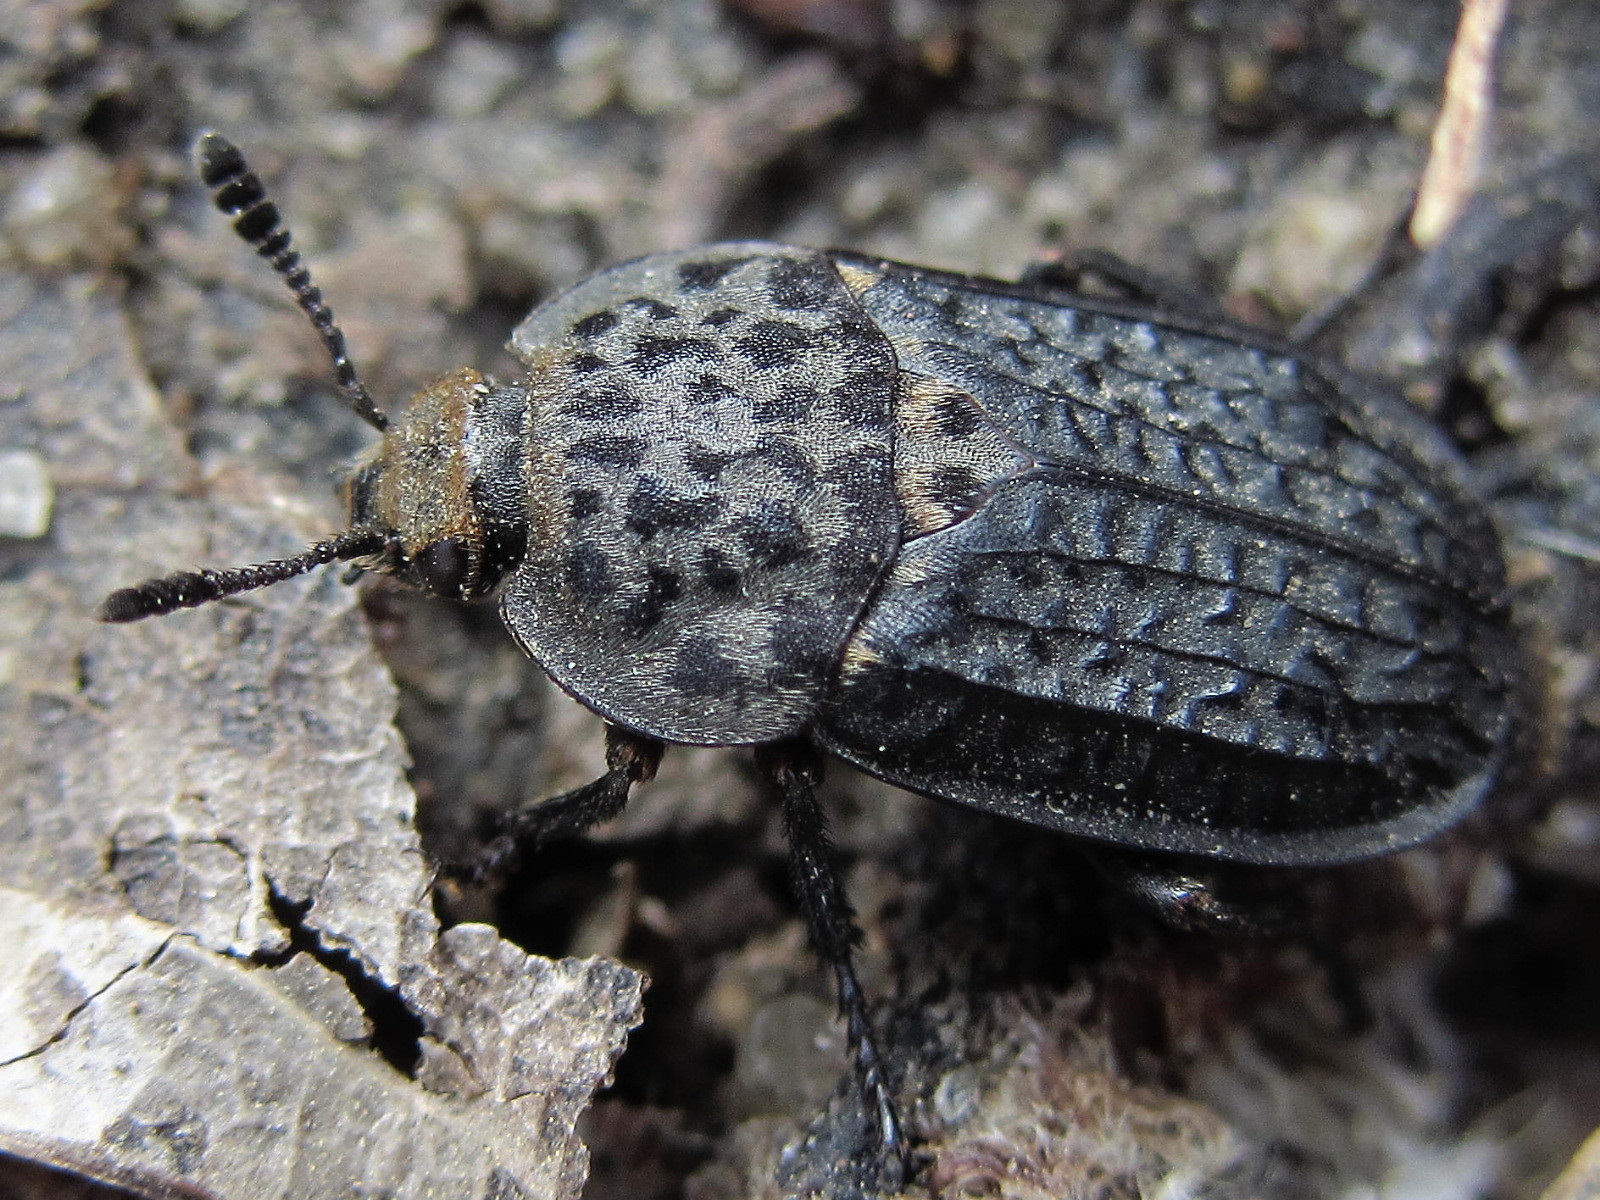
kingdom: Animalia
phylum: Arthropoda
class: Insecta
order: Coleoptera
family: Staphylinidae
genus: Thanatophilus
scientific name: Thanatophilus rugosus
